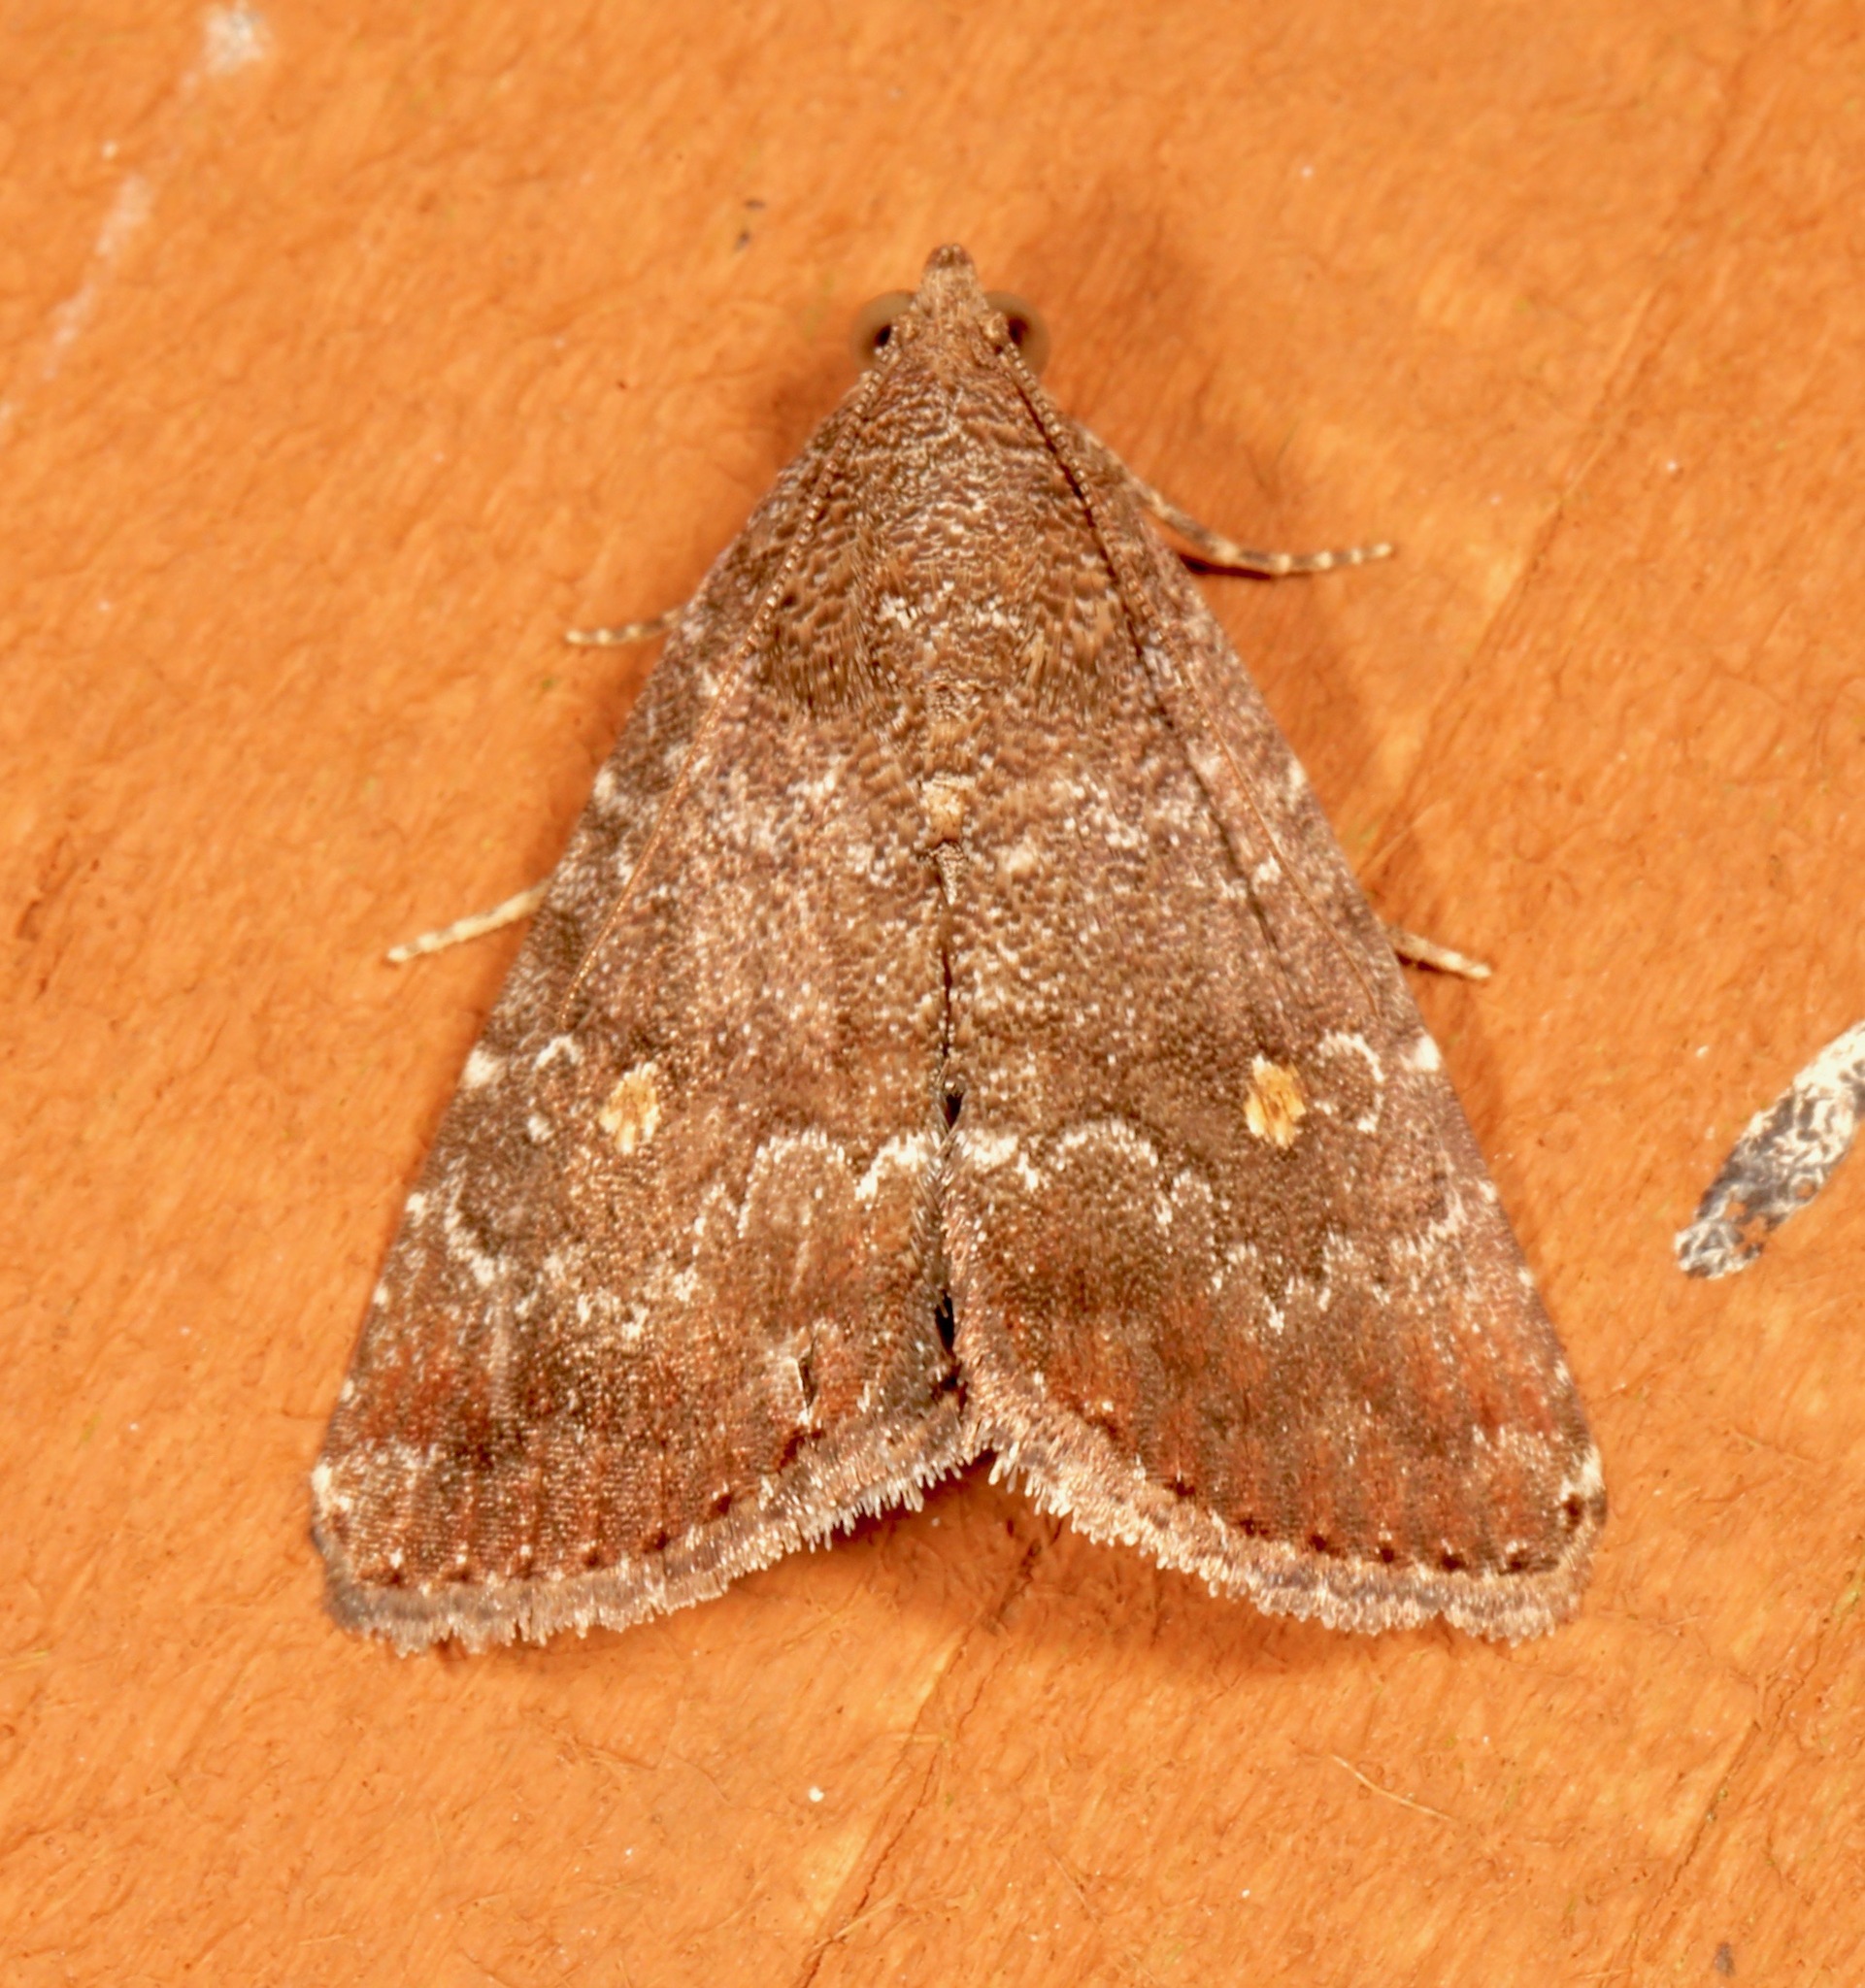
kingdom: Animalia
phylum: Arthropoda
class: Insecta
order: Lepidoptera
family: Noctuidae
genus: Amyna
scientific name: Amyna stricta
